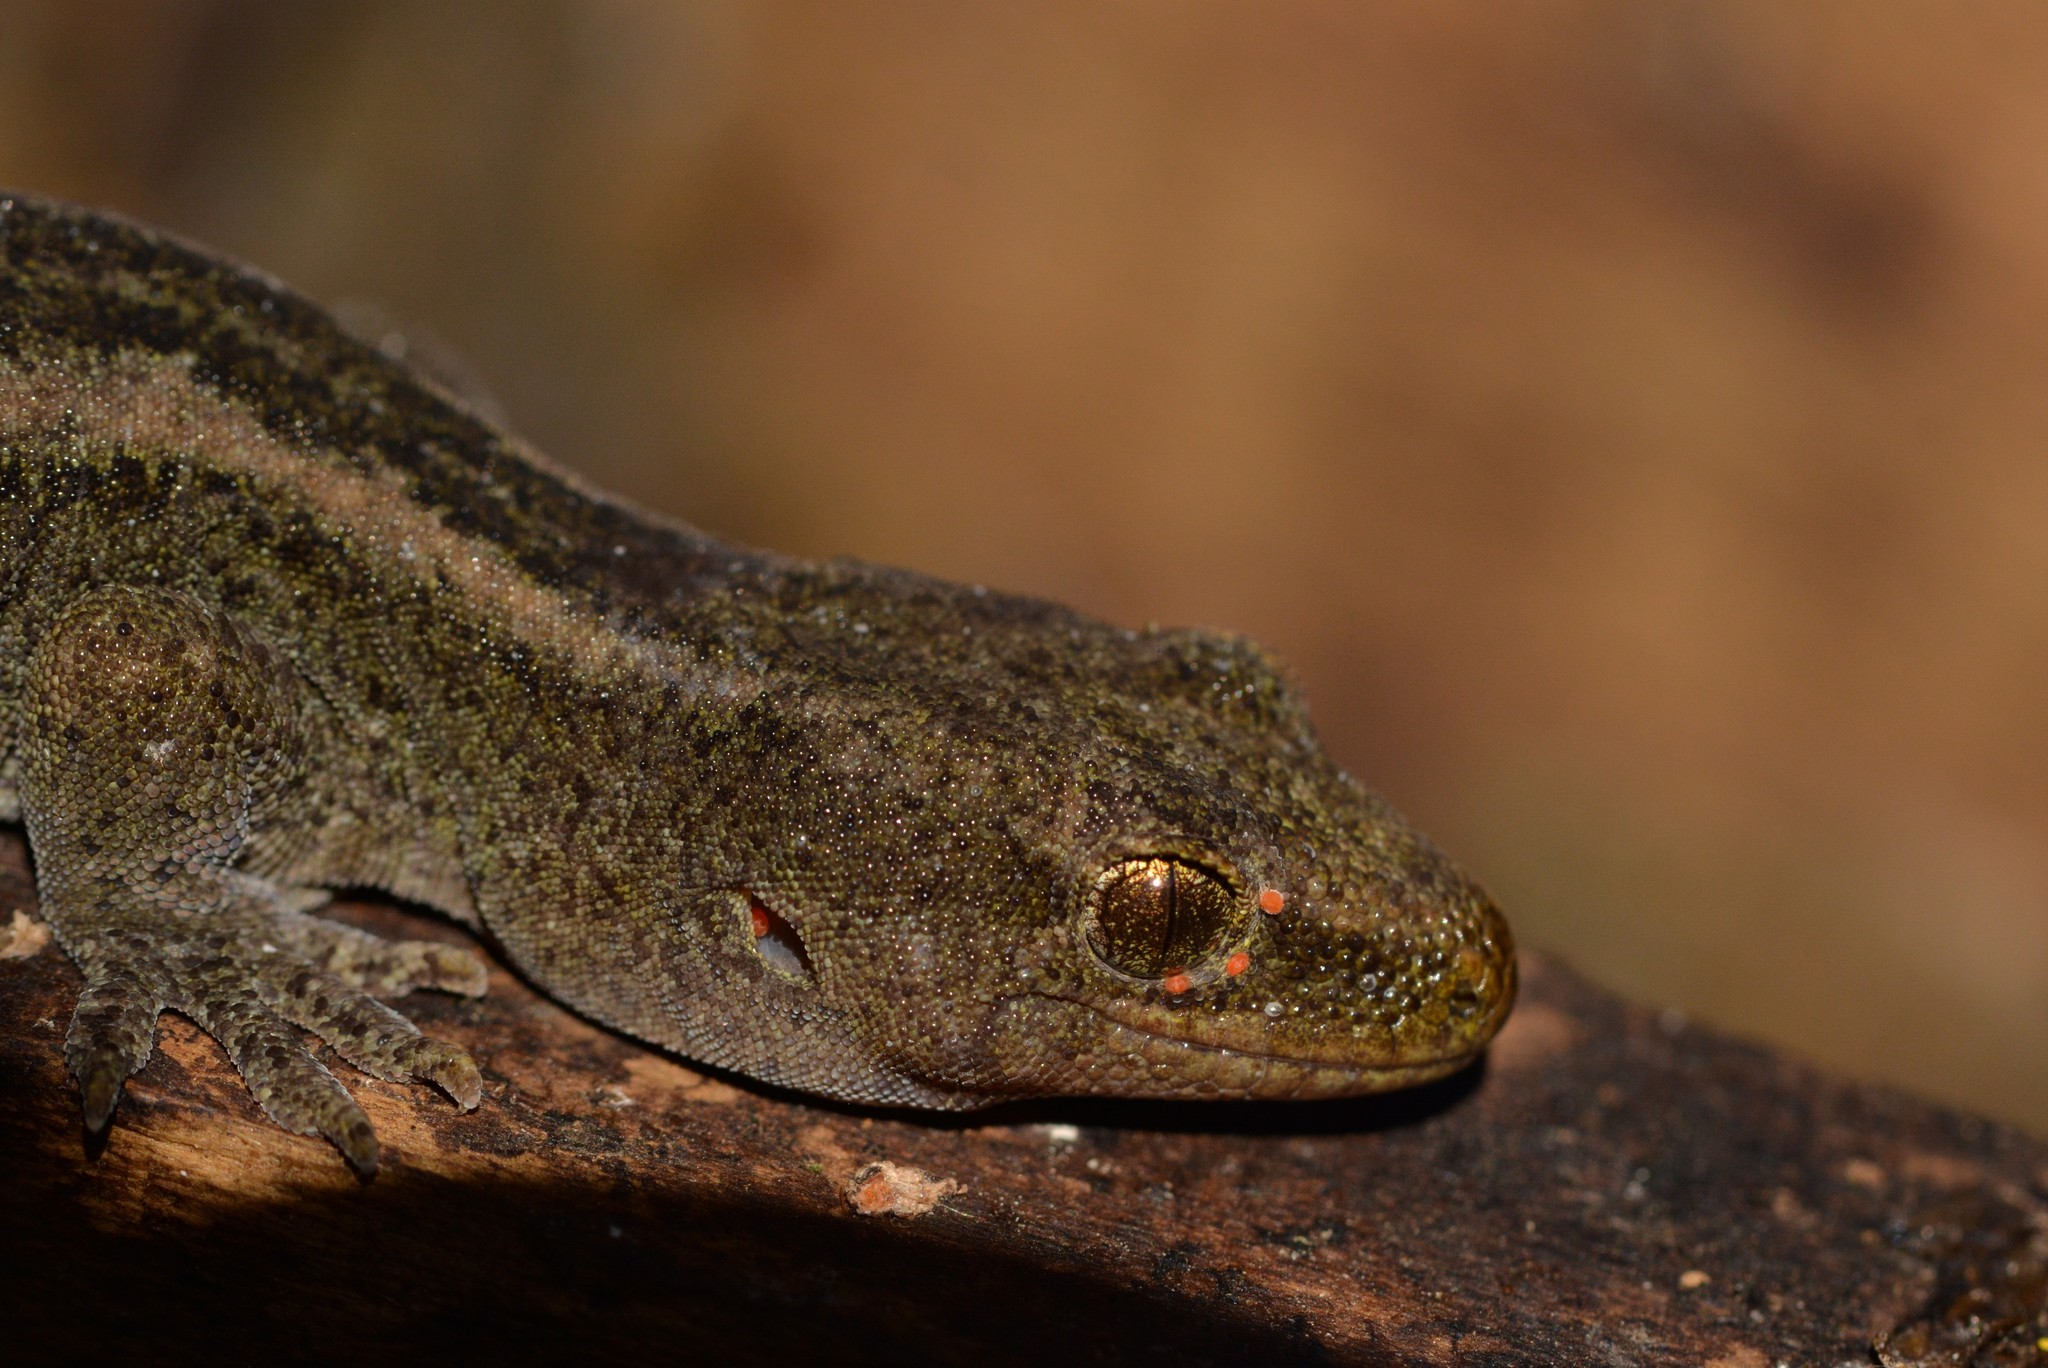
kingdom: Animalia
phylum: Chordata
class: Squamata
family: Diplodactylidae
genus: Woodworthia
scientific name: Woodworthia maculata
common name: Raukawa gecko
